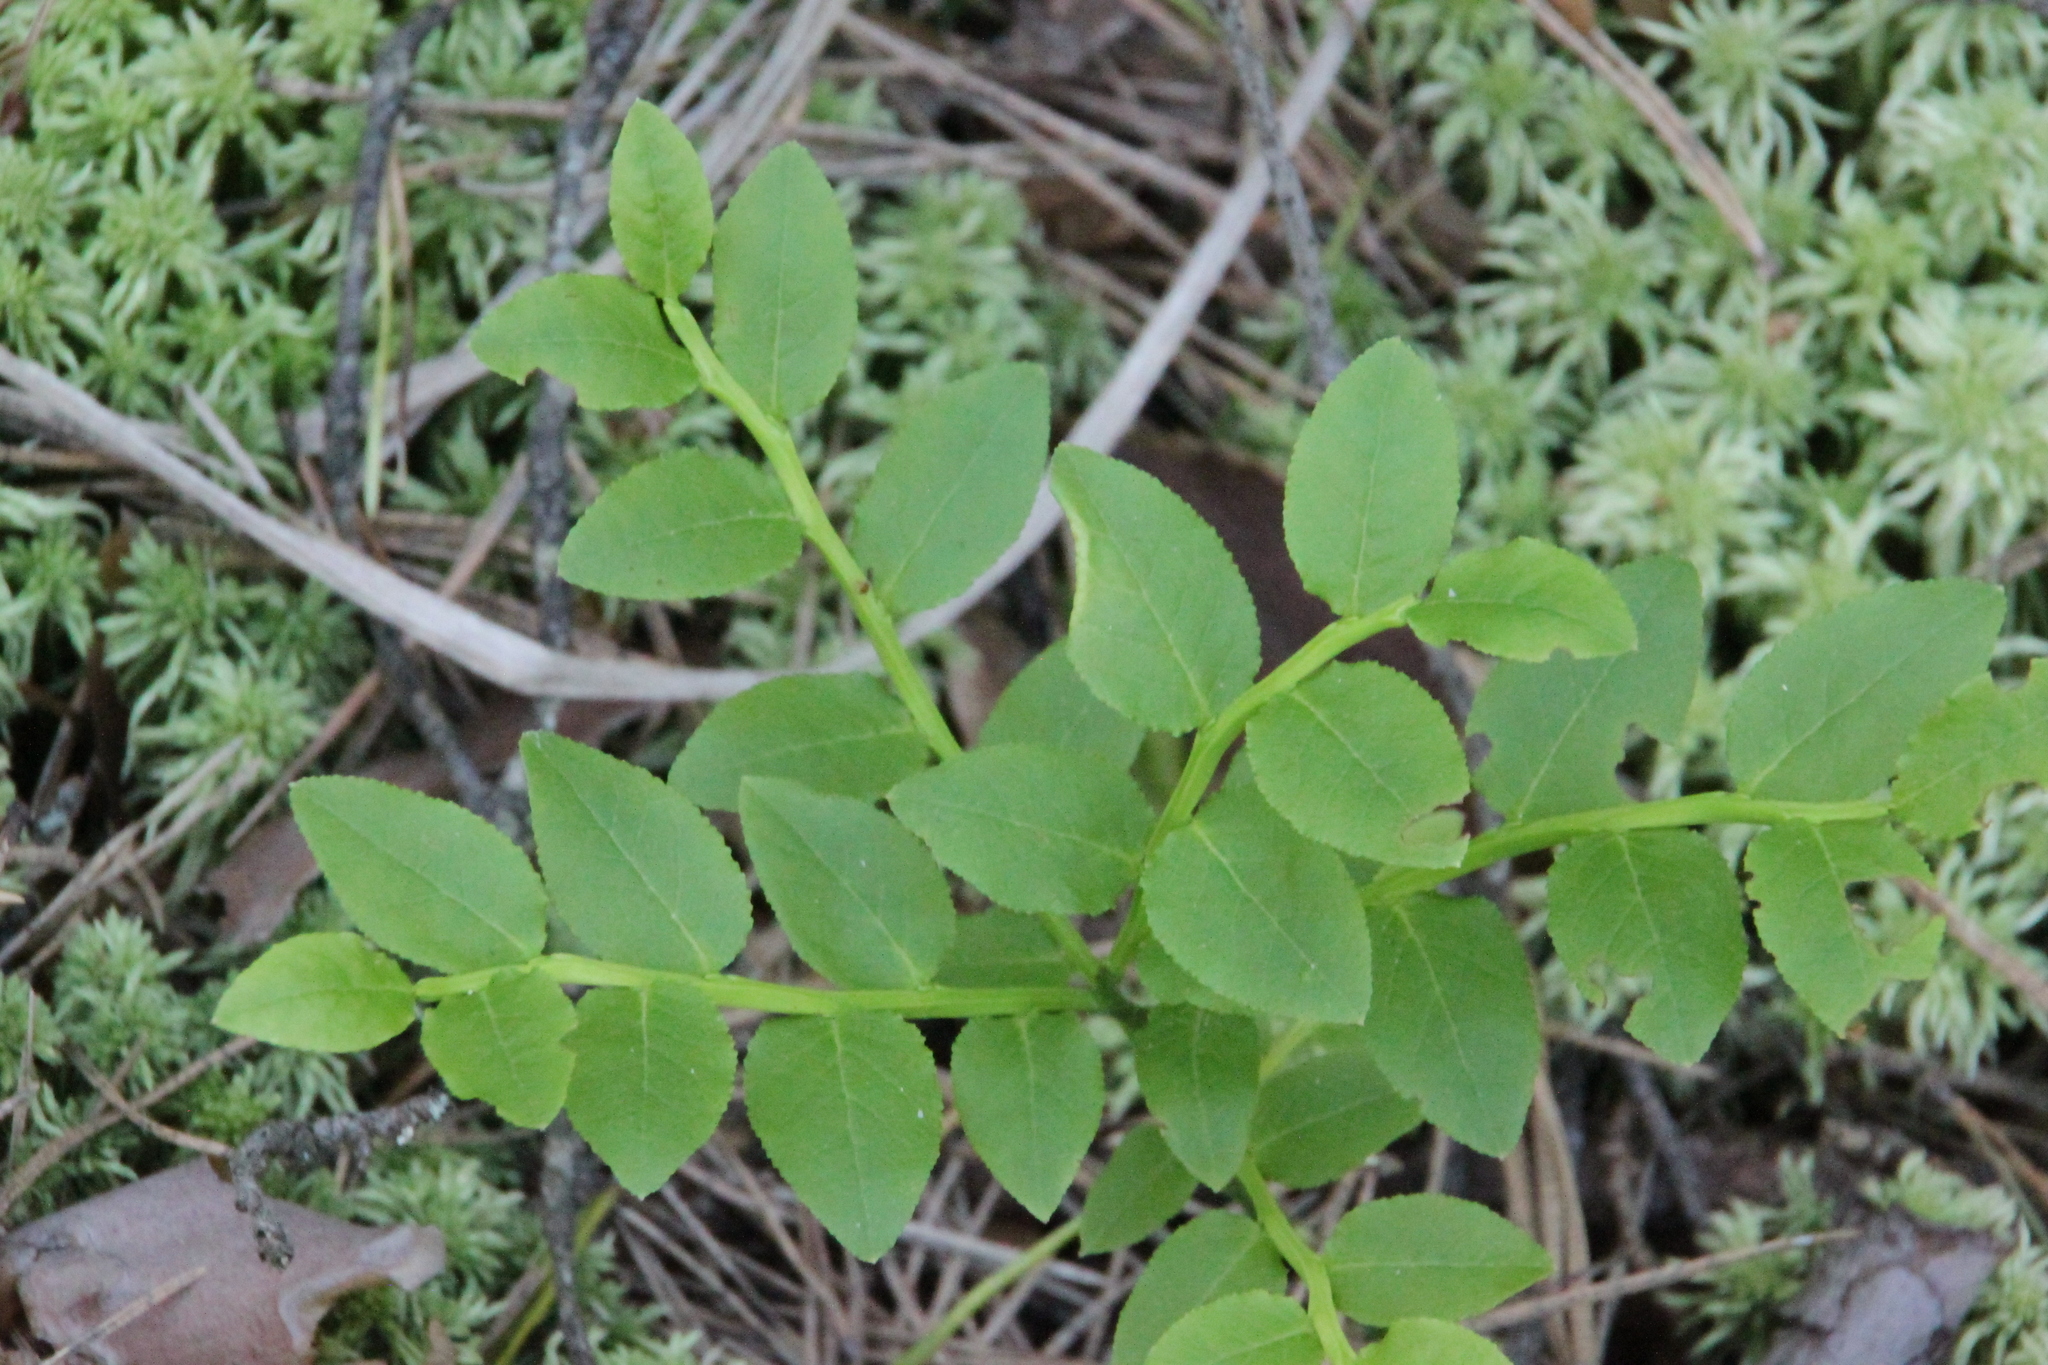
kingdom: Plantae
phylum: Tracheophyta
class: Magnoliopsida
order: Ericales
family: Ericaceae
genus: Vaccinium
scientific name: Vaccinium myrtillus
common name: Bilberry
